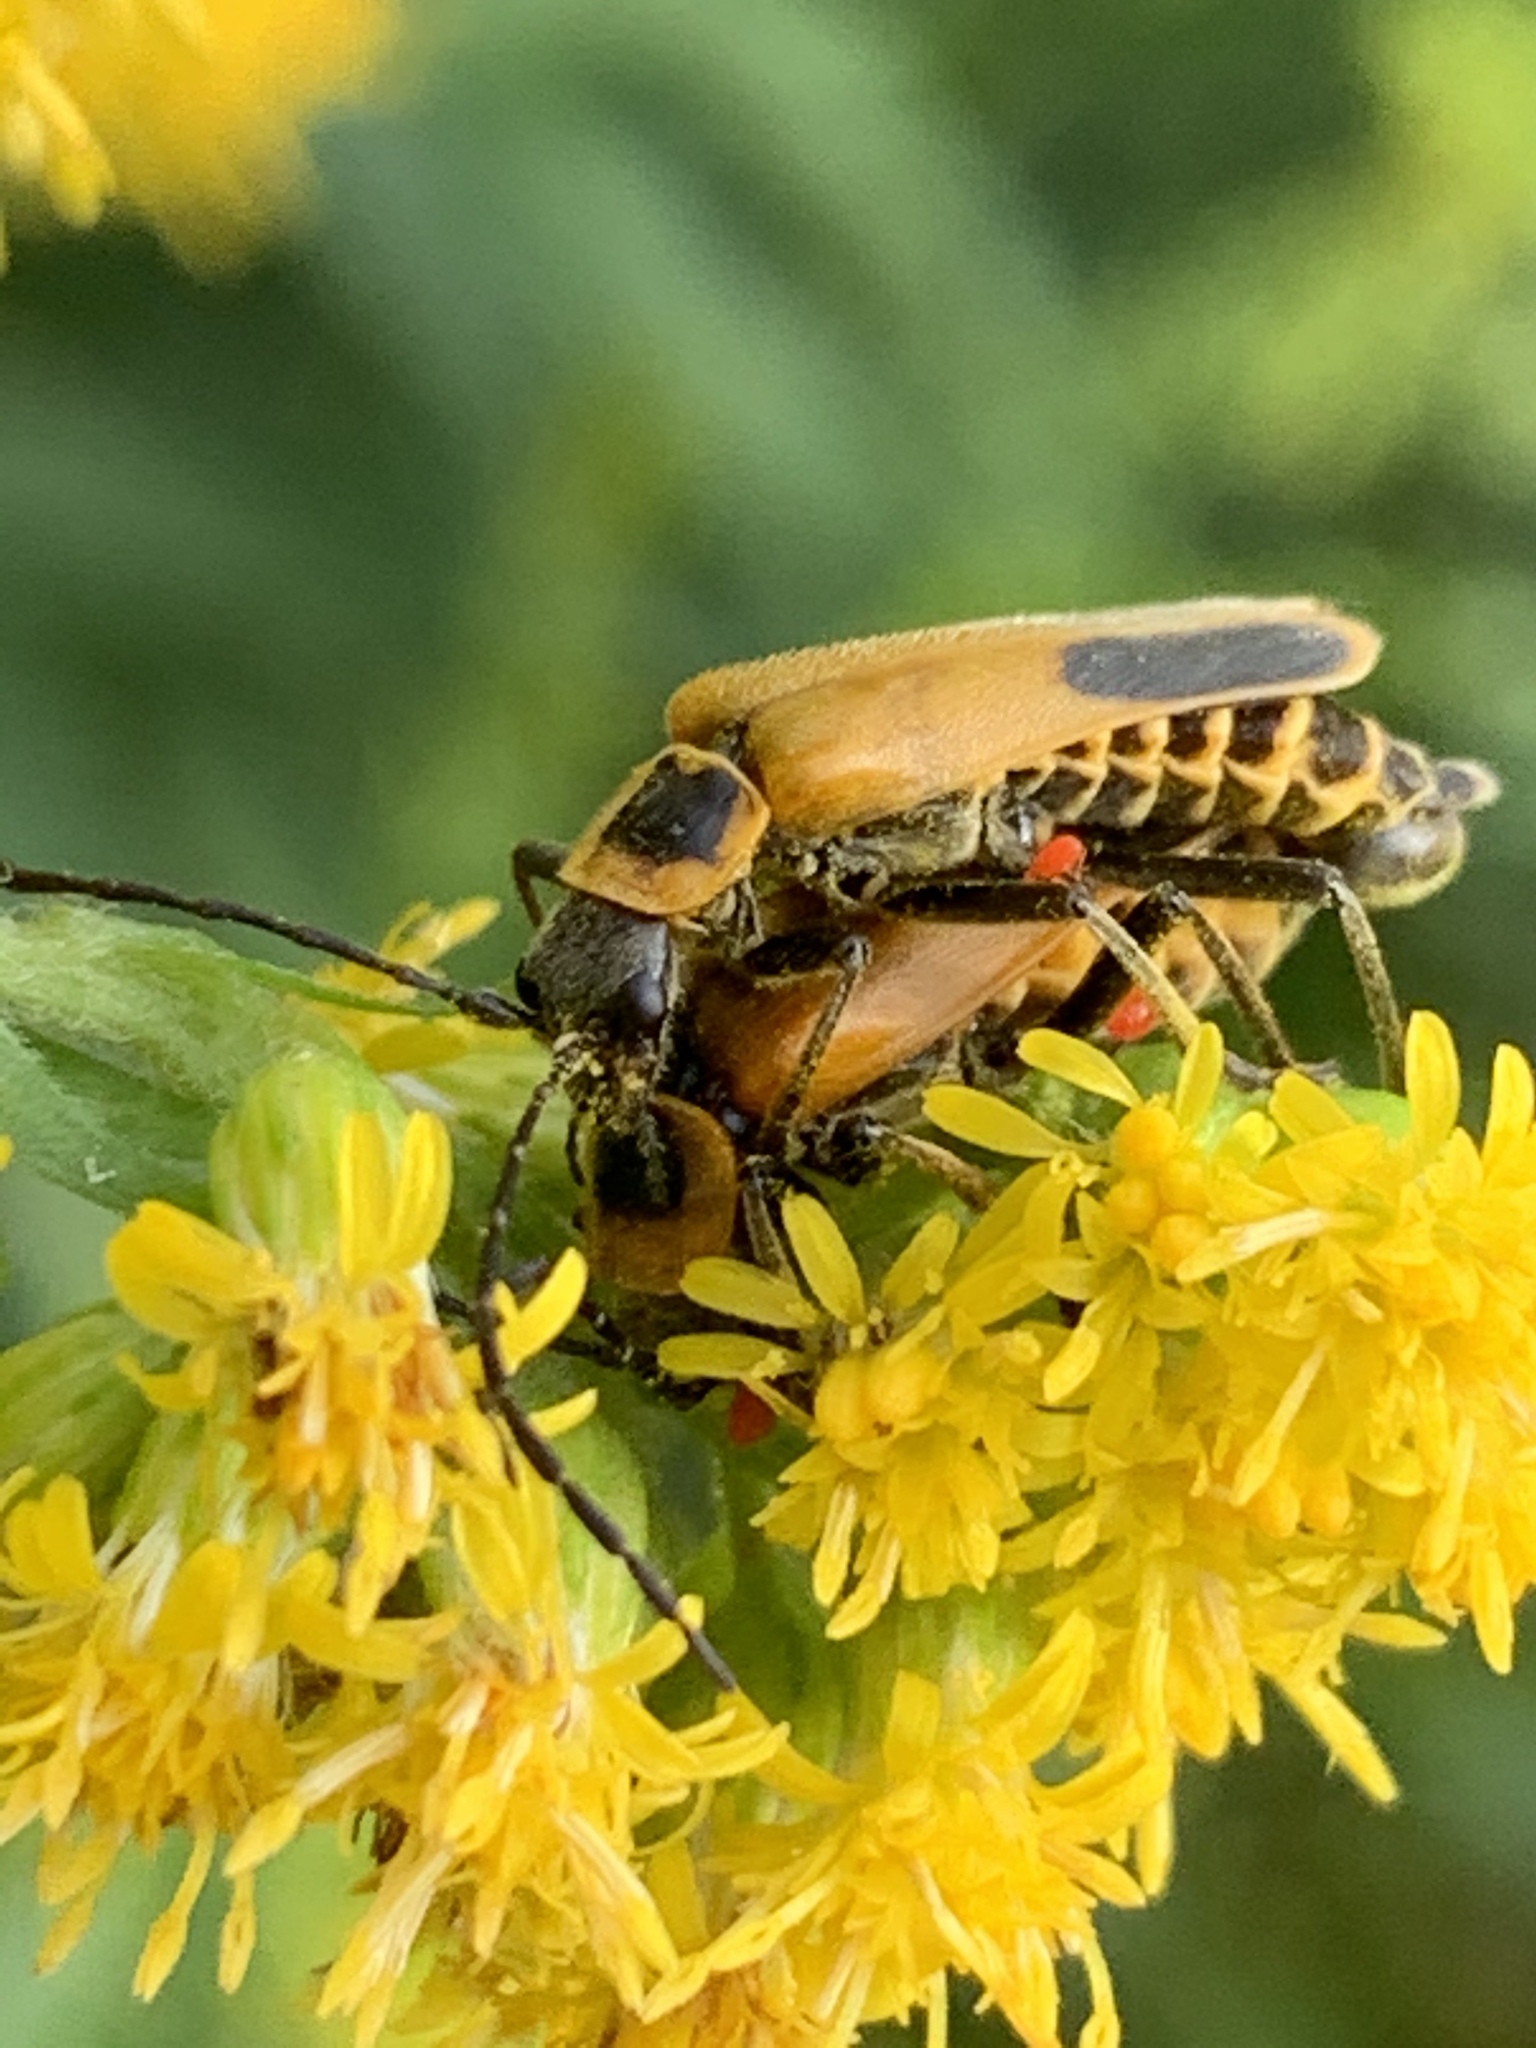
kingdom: Animalia
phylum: Arthropoda
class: Insecta
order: Coleoptera
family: Cantharidae
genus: Chauliognathus
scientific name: Chauliognathus pensylvanicus
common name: Goldenrod soldier beetle
